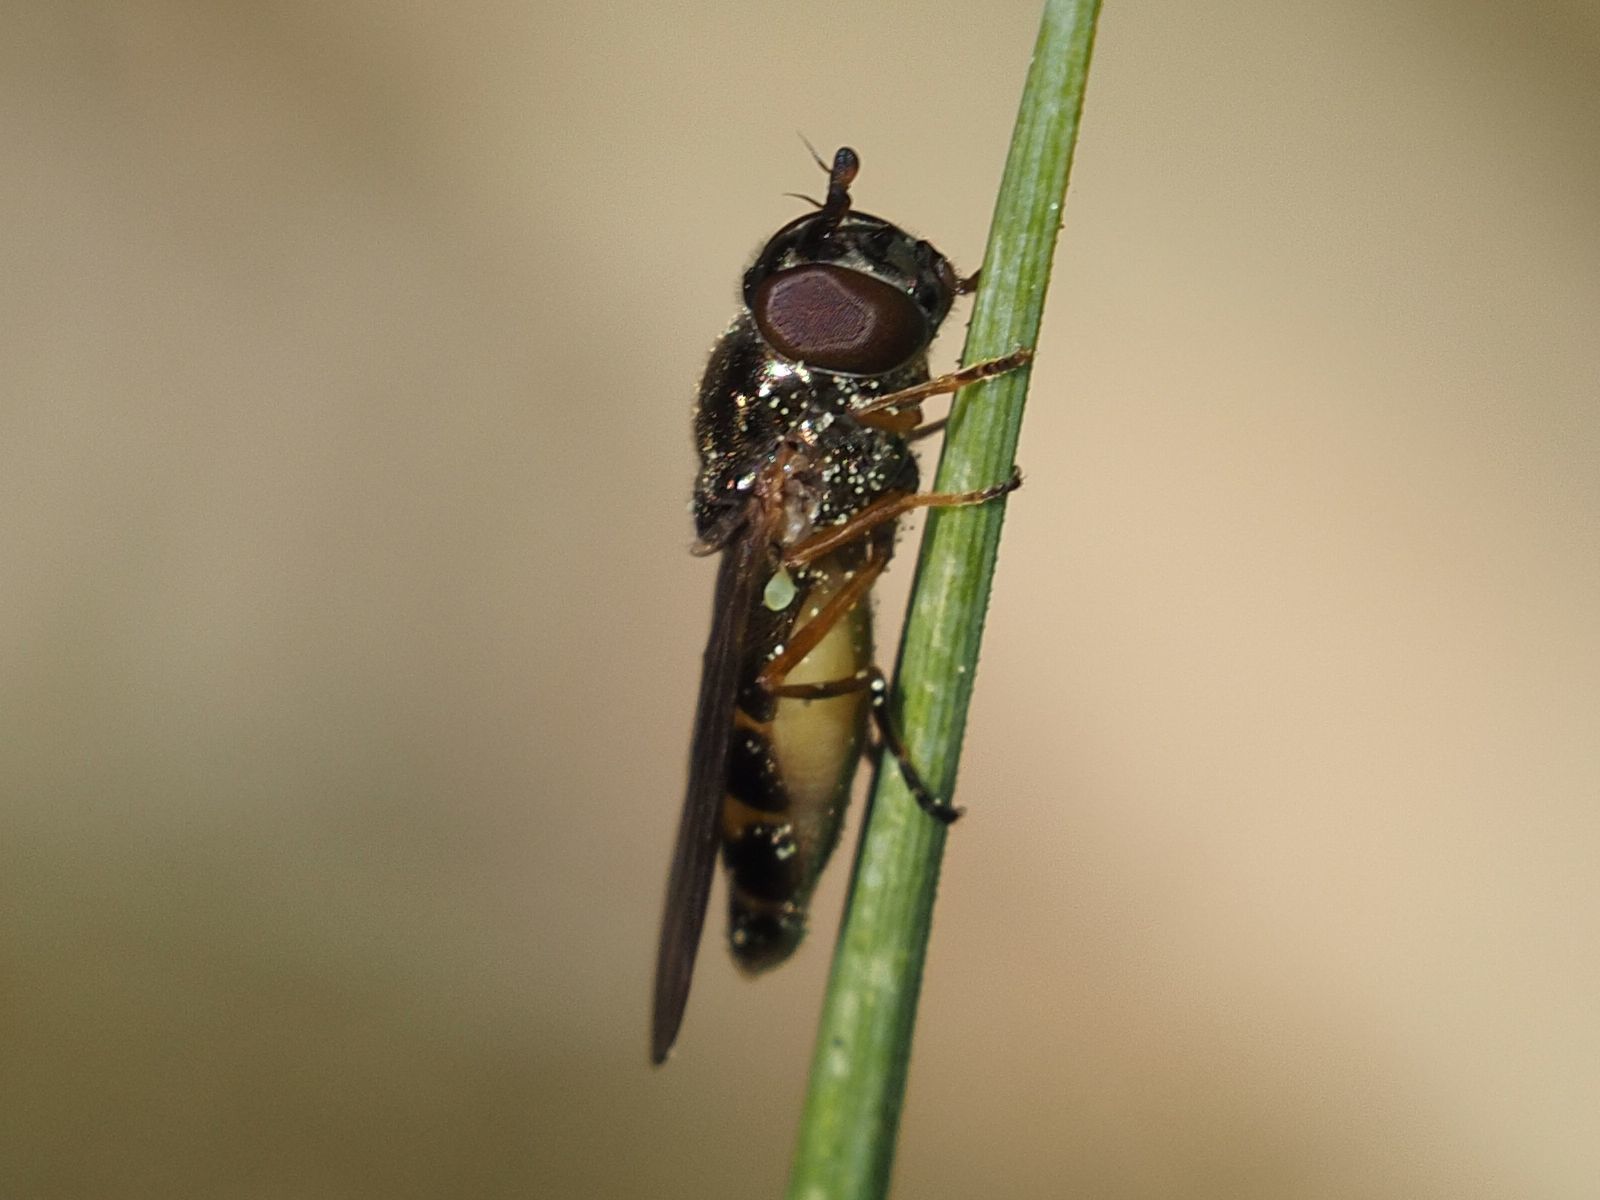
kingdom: Animalia
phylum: Arthropoda
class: Insecta
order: Diptera
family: Syrphidae
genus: Melanostoma
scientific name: Melanostoma mellina
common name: Hover fly
